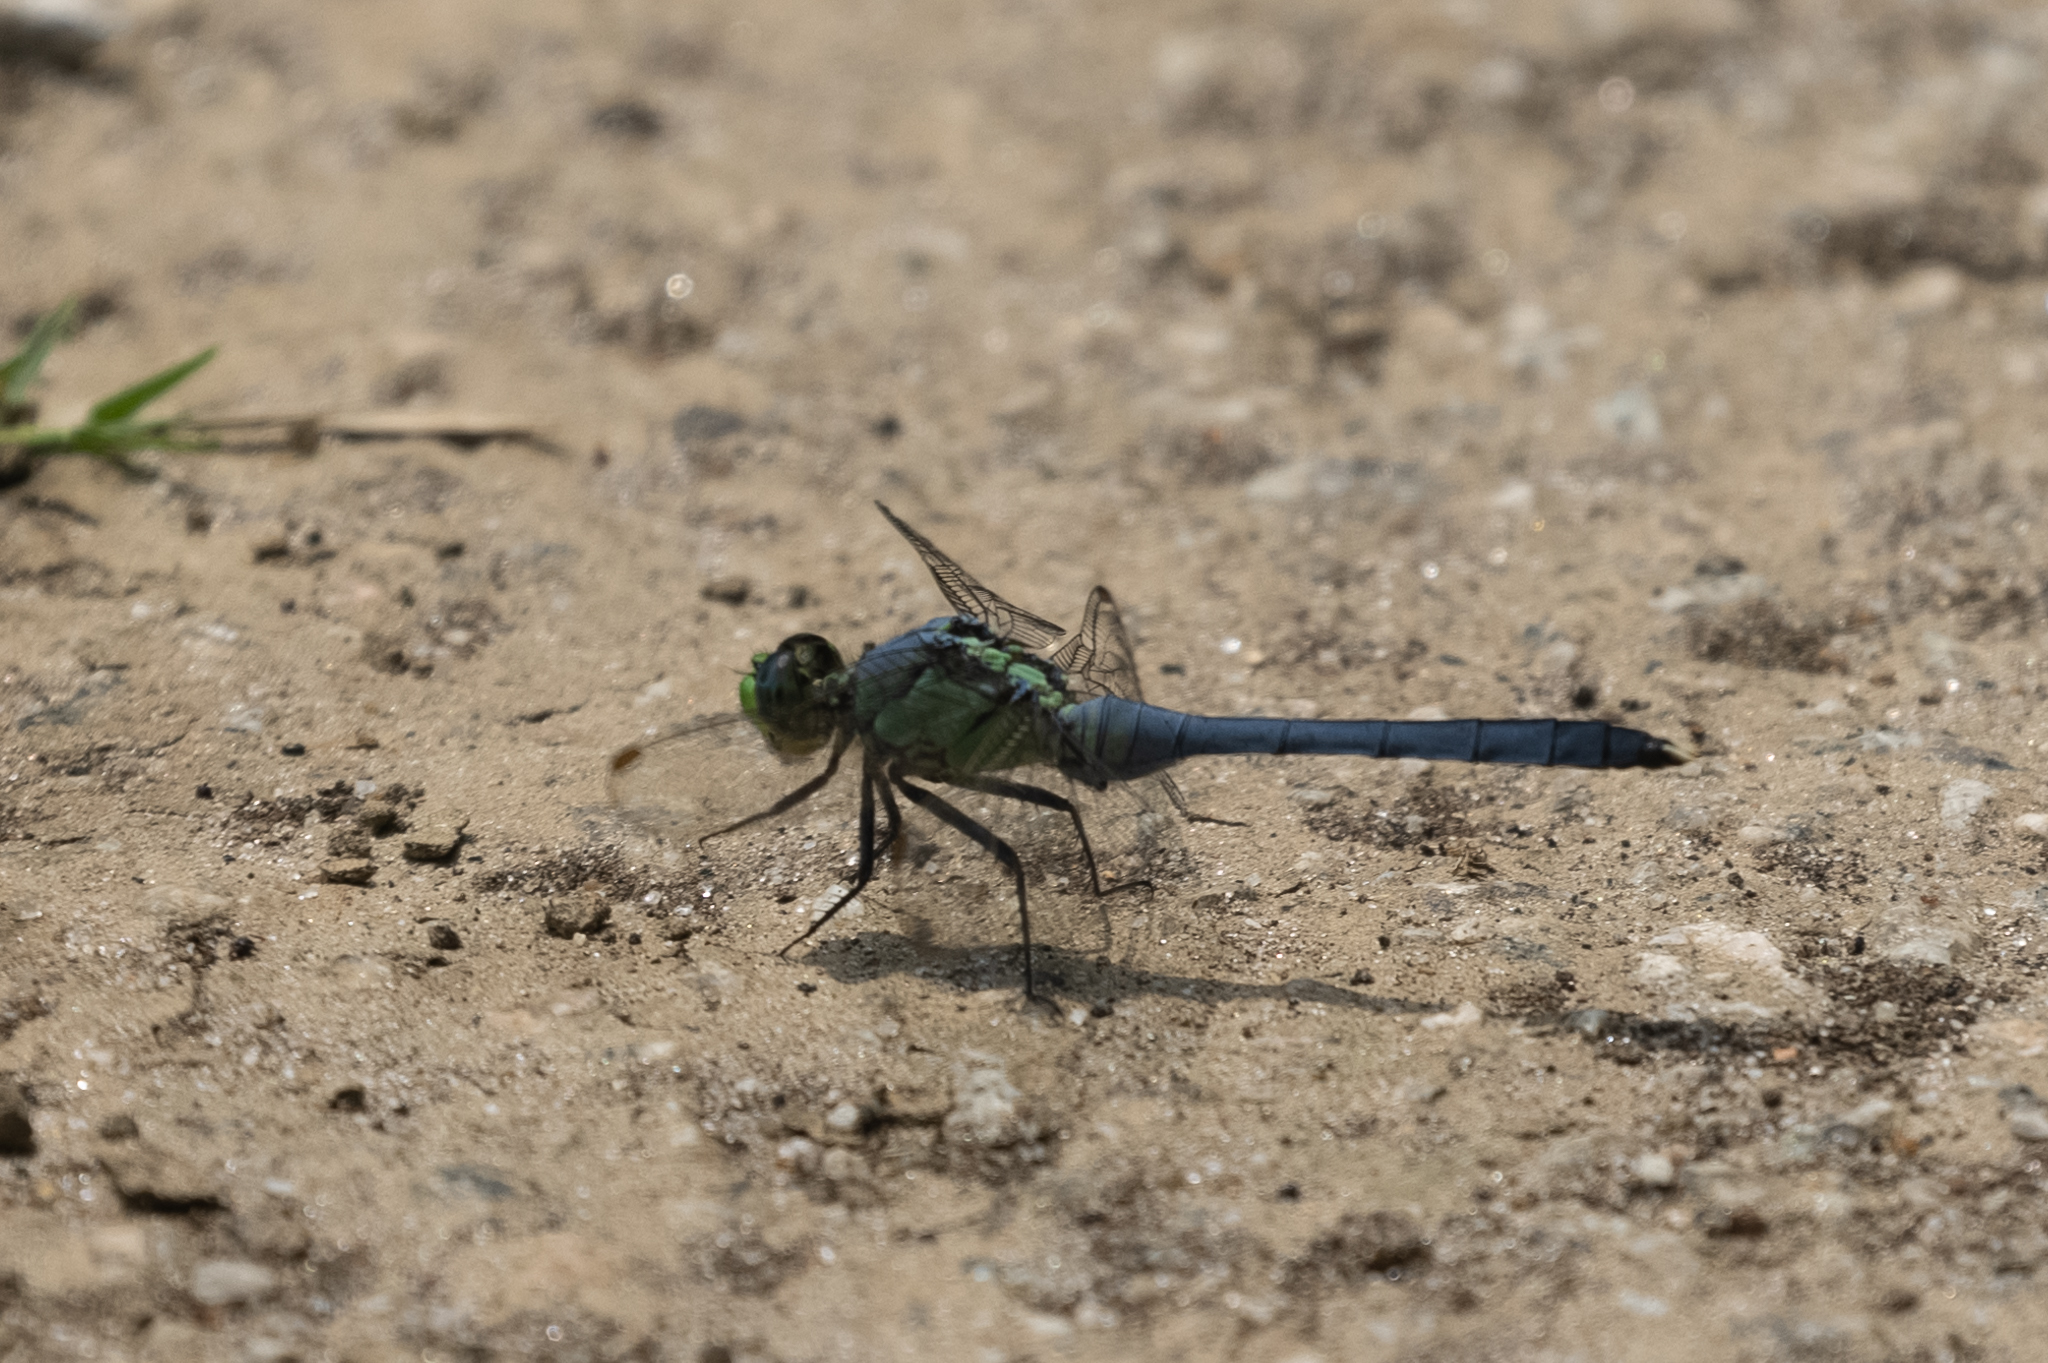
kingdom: Animalia
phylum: Arthropoda
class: Insecta
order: Odonata
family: Libellulidae
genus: Erythemis
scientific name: Erythemis simplicicollis
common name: Eastern pondhawk
